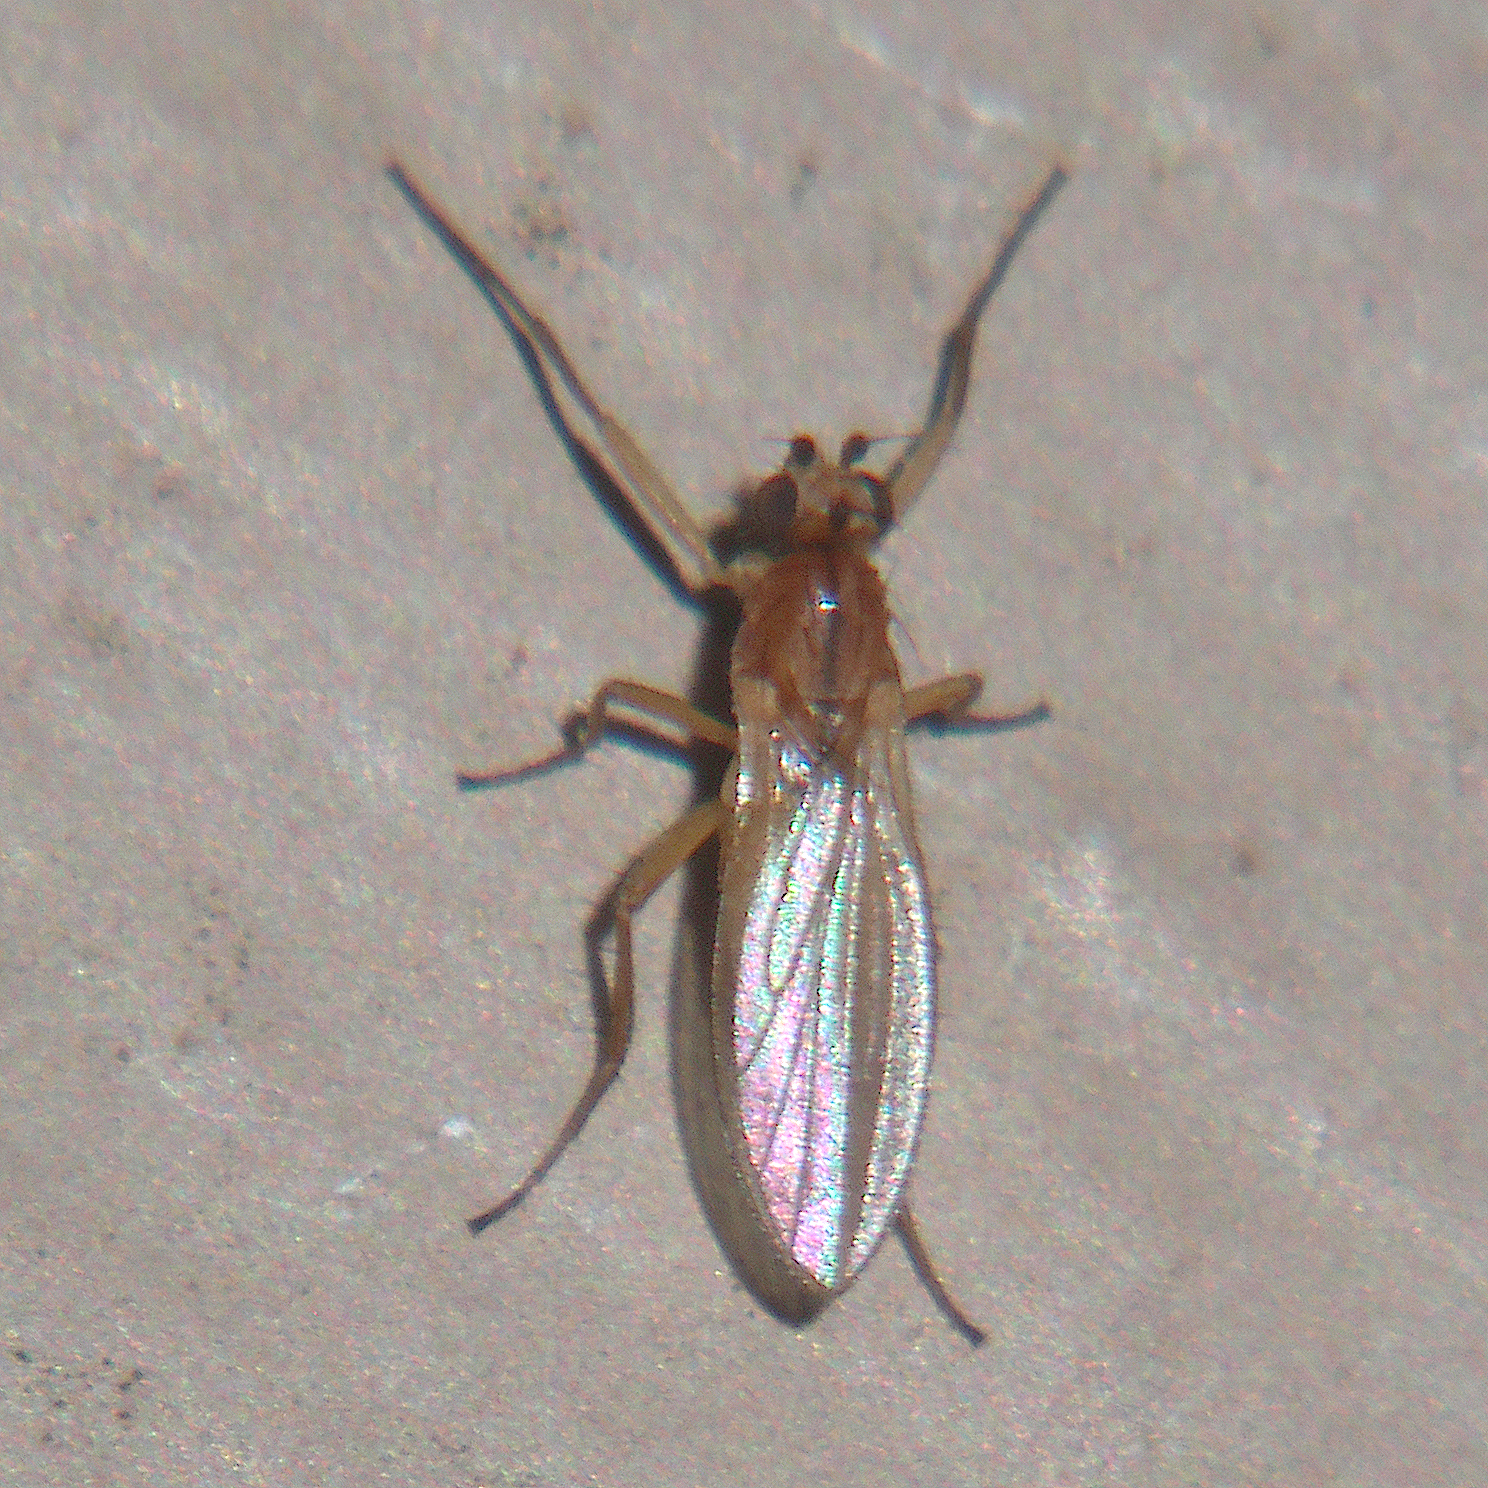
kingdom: Animalia
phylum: Arthropoda
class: Insecta
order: Diptera
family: Lonchopteridae
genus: Lonchoptera
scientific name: Lonchoptera bifurcata
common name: Spear-winged fly
